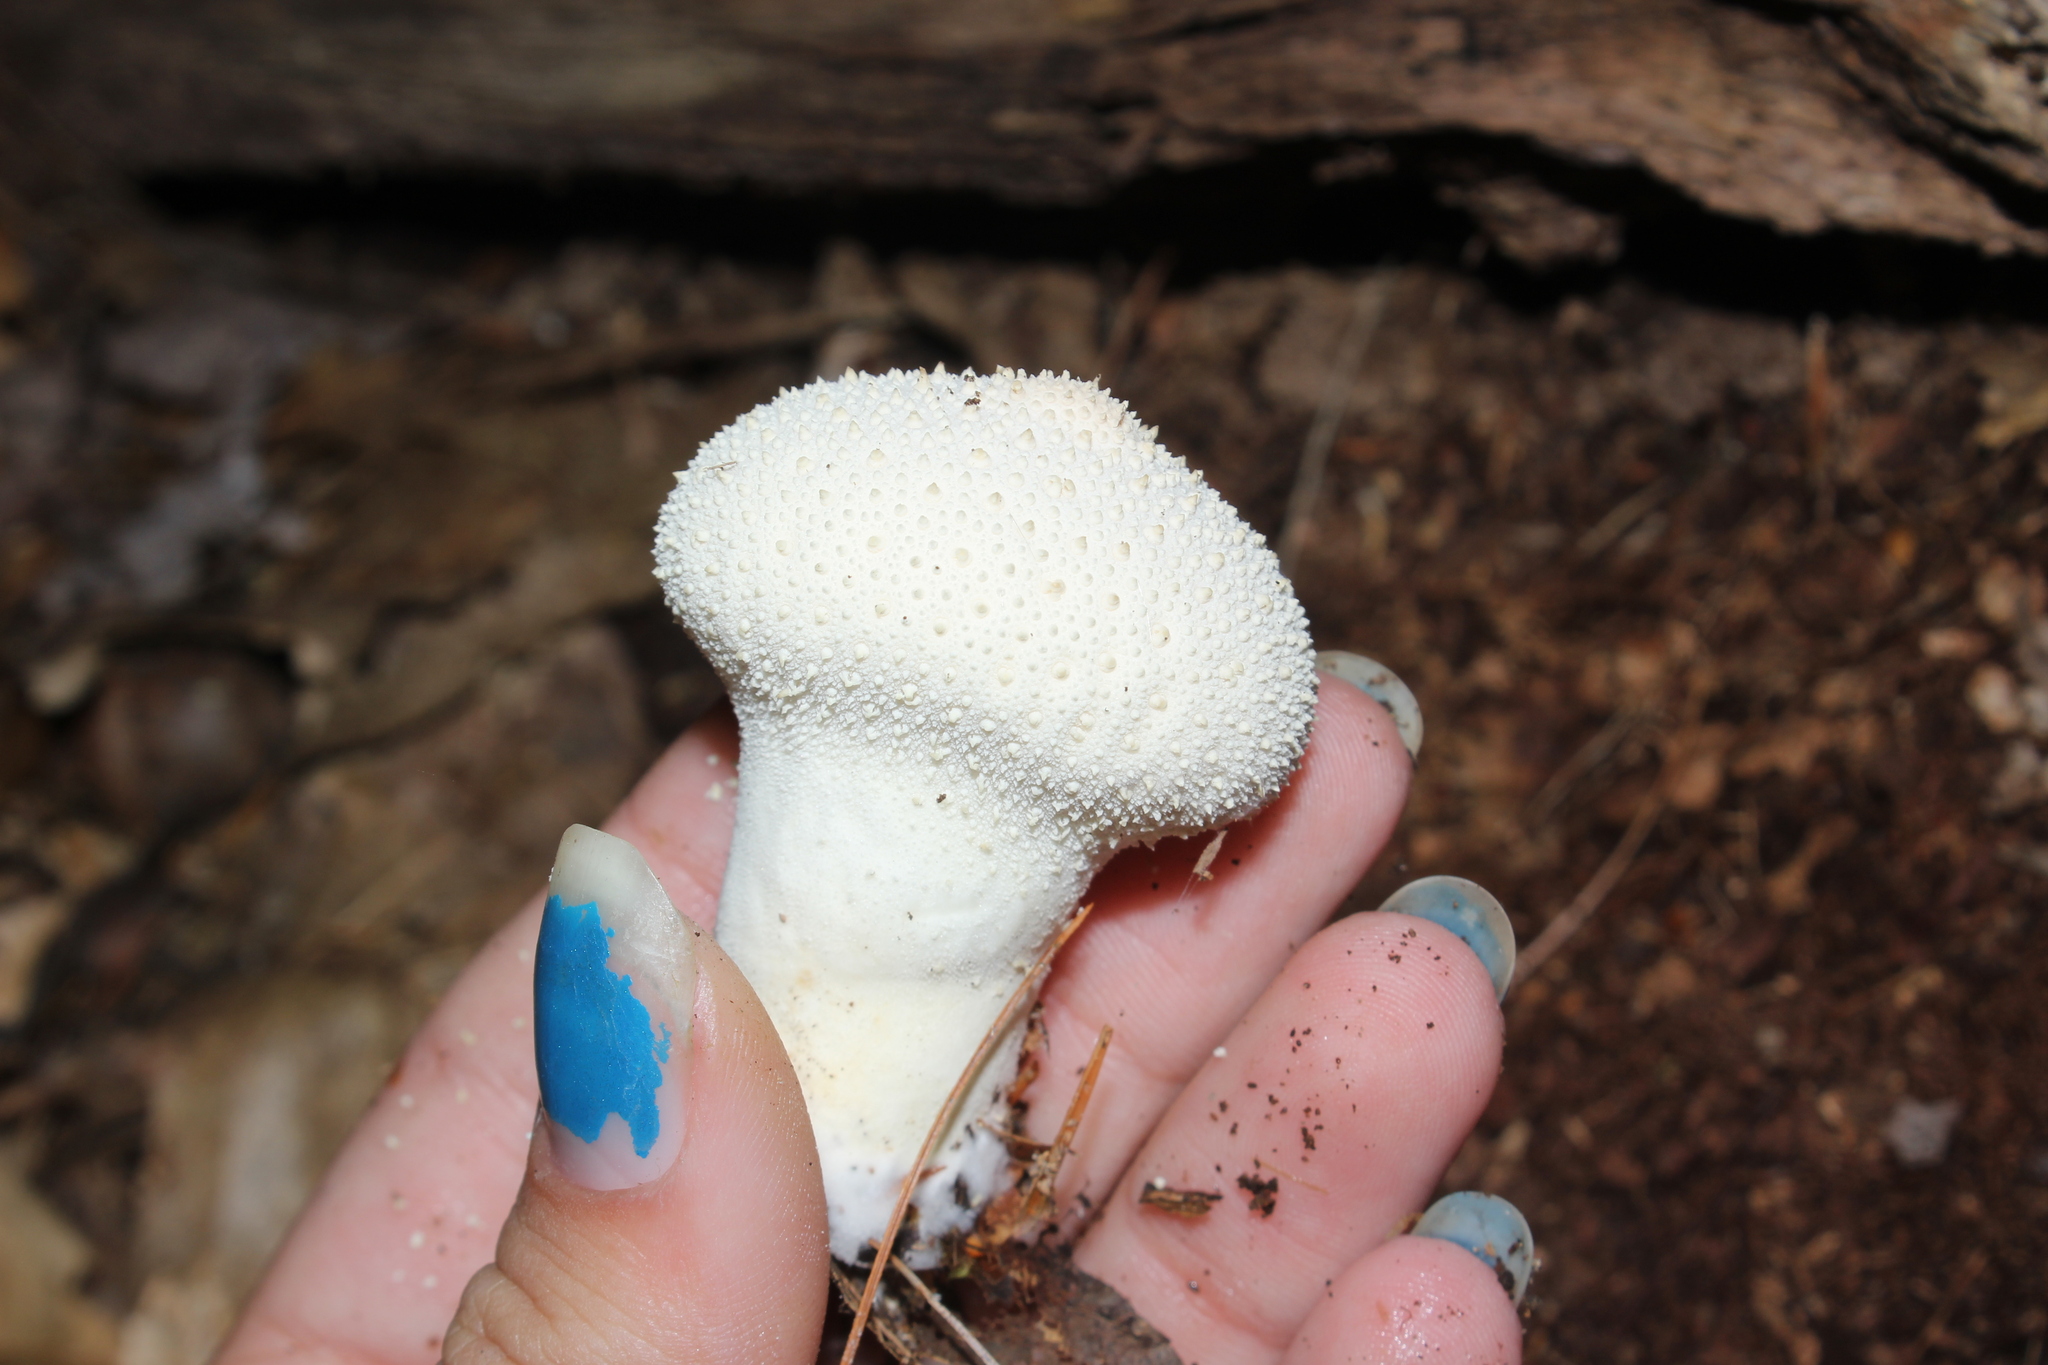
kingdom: Fungi
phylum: Basidiomycota
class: Agaricomycetes
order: Agaricales
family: Lycoperdaceae
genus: Lycoperdon
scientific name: Lycoperdon perlatum
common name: Common puffball
